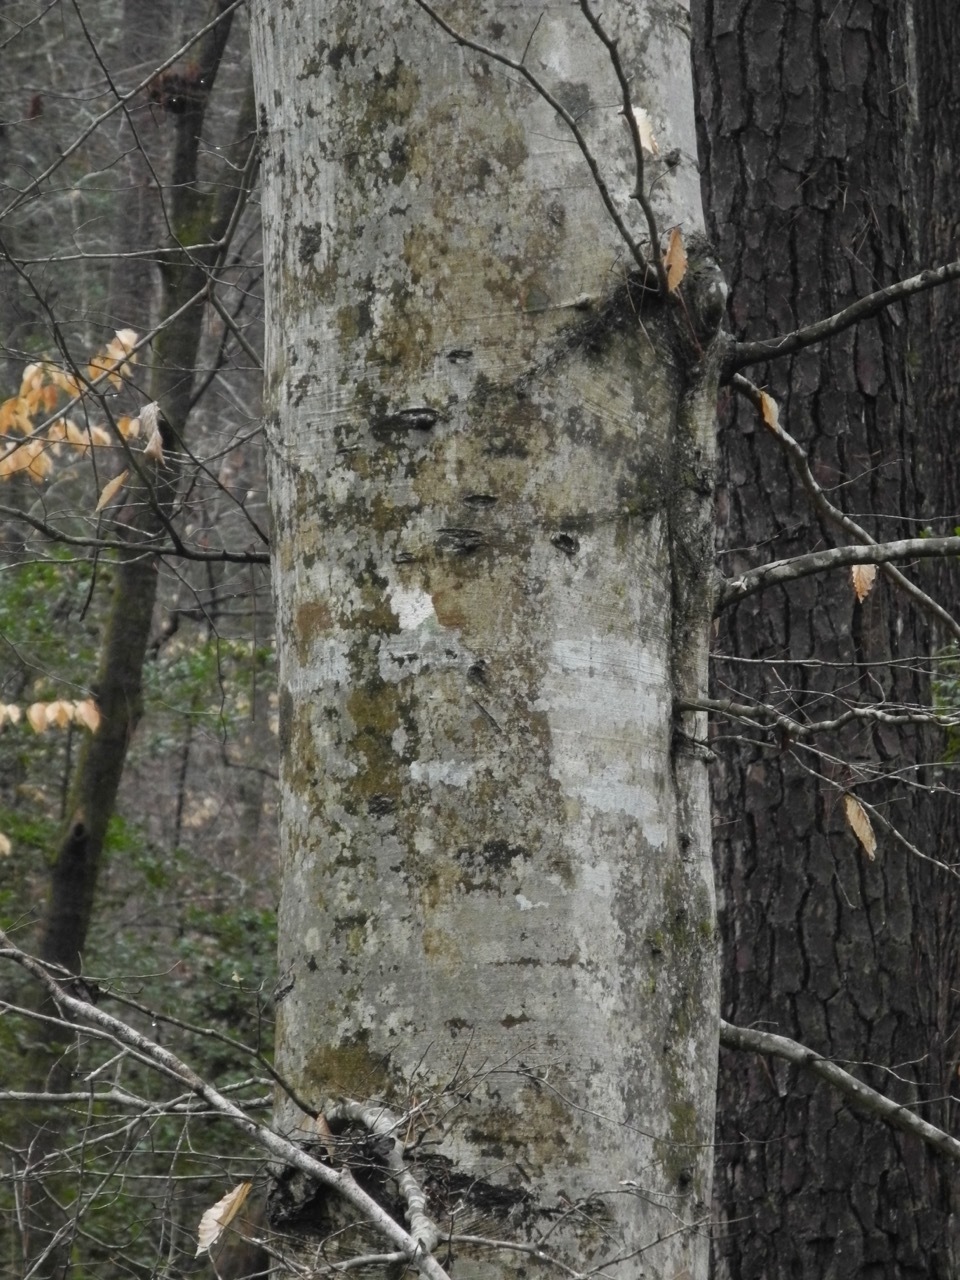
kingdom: Plantae
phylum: Tracheophyta
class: Magnoliopsida
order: Fagales
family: Fagaceae
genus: Fagus
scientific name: Fagus grandifolia
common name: American beech
